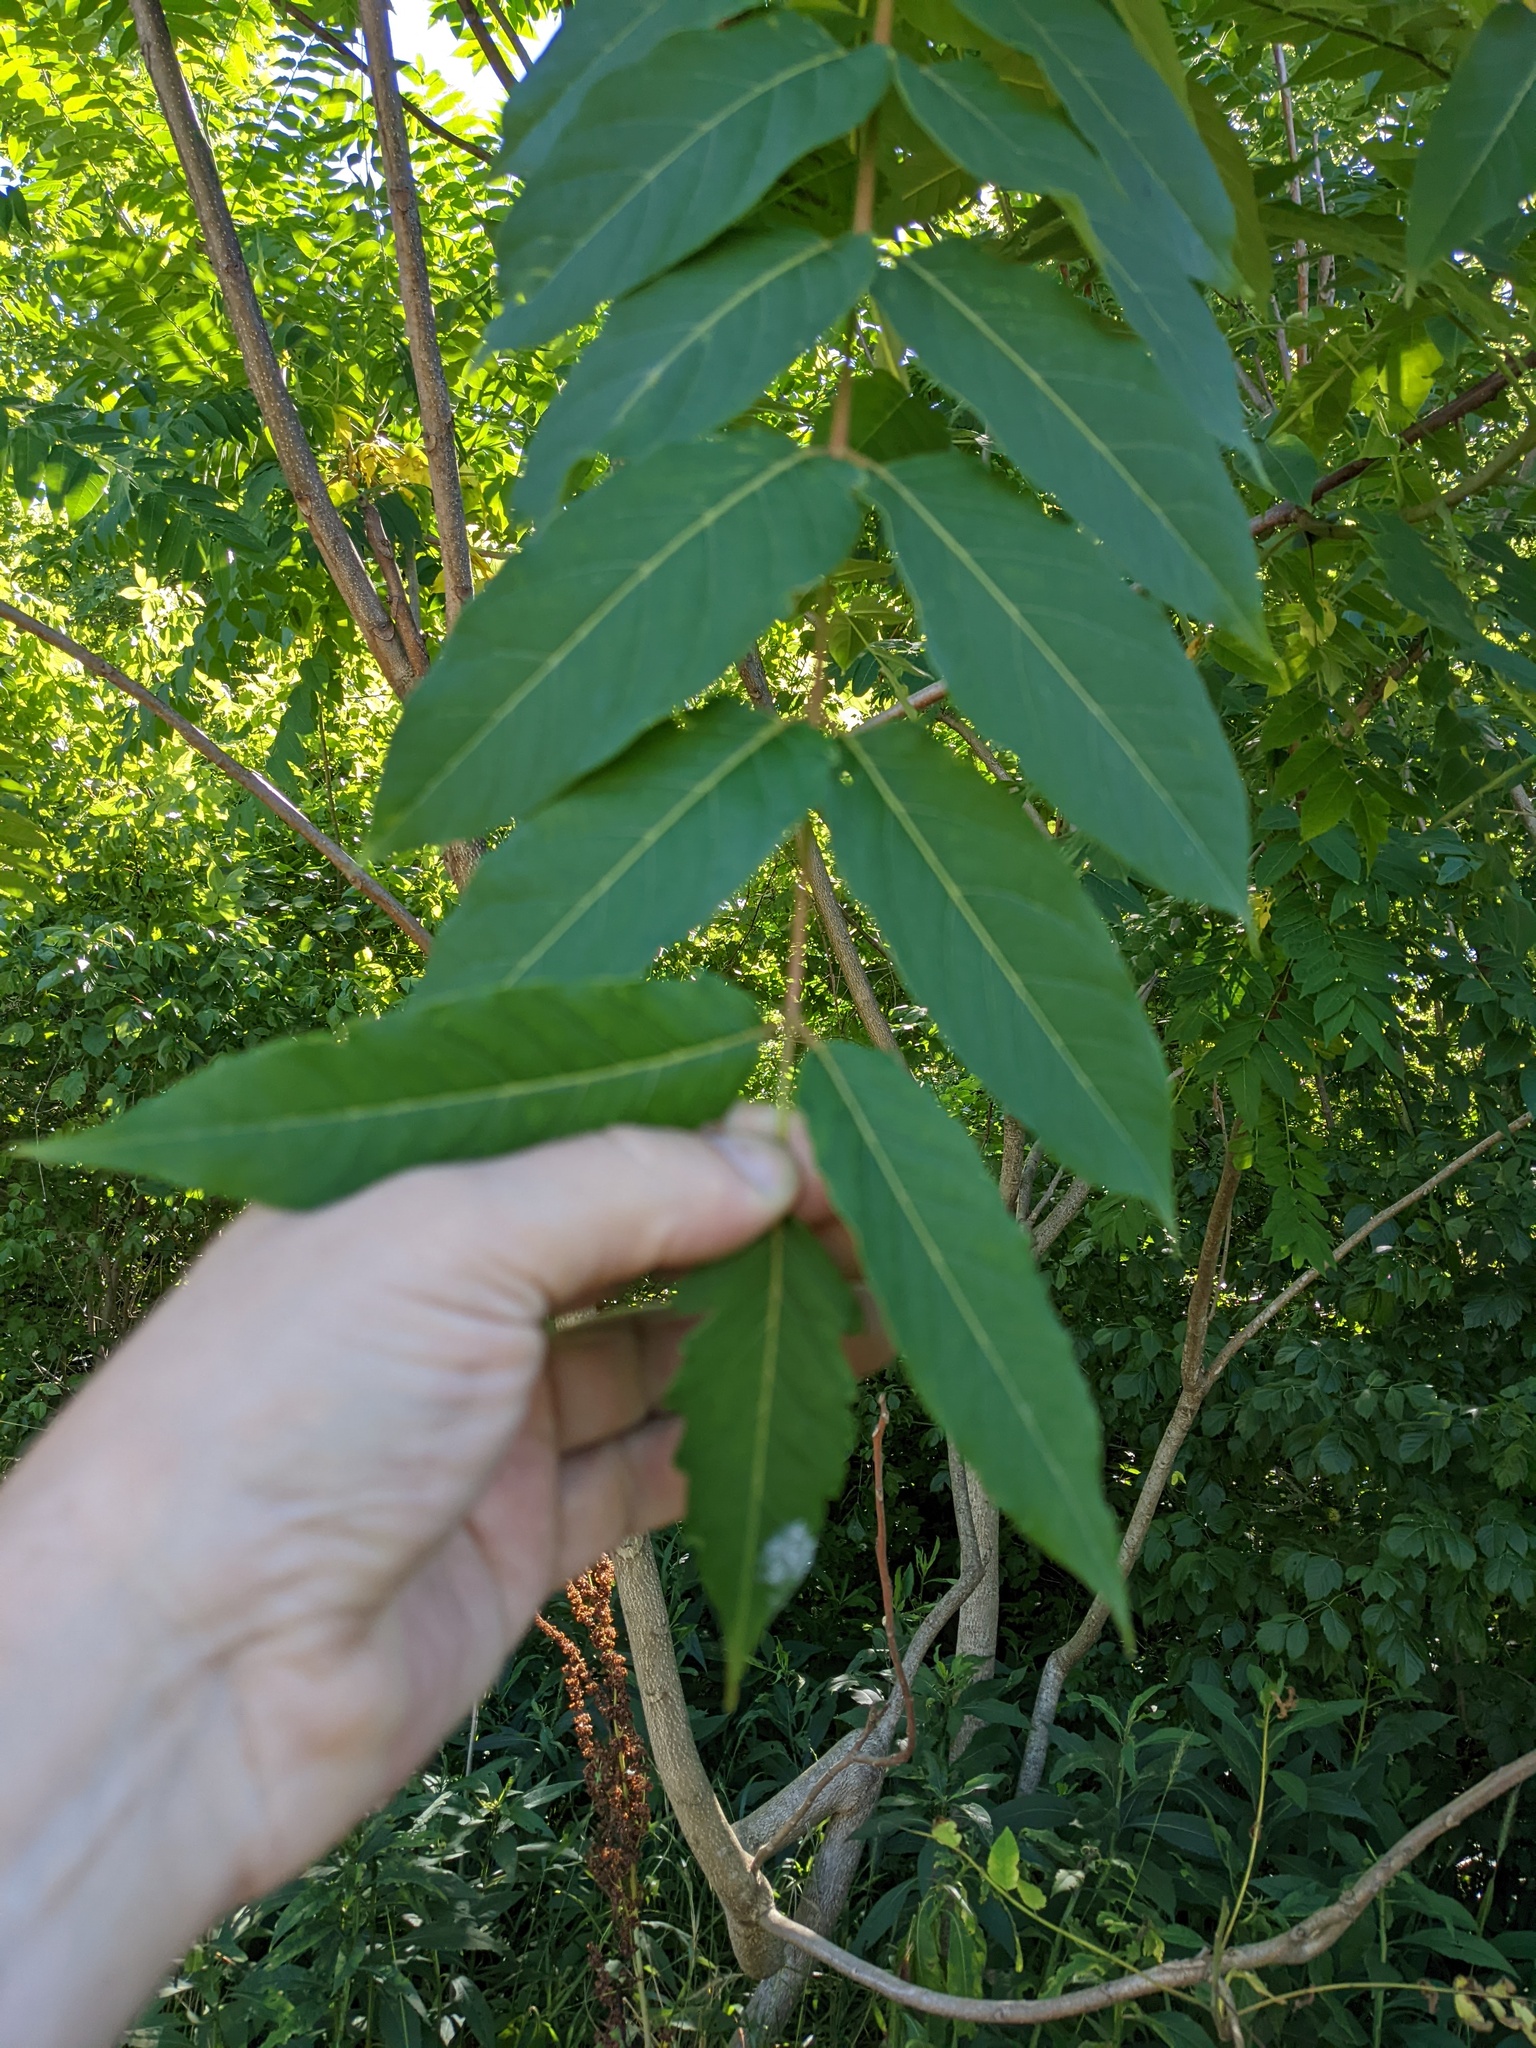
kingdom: Plantae
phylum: Tracheophyta
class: Magnoliopsida
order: Sapindales
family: Simaroubaceae
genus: Ailanthus
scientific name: Ailanthus altissima
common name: Tree-of-heaven
